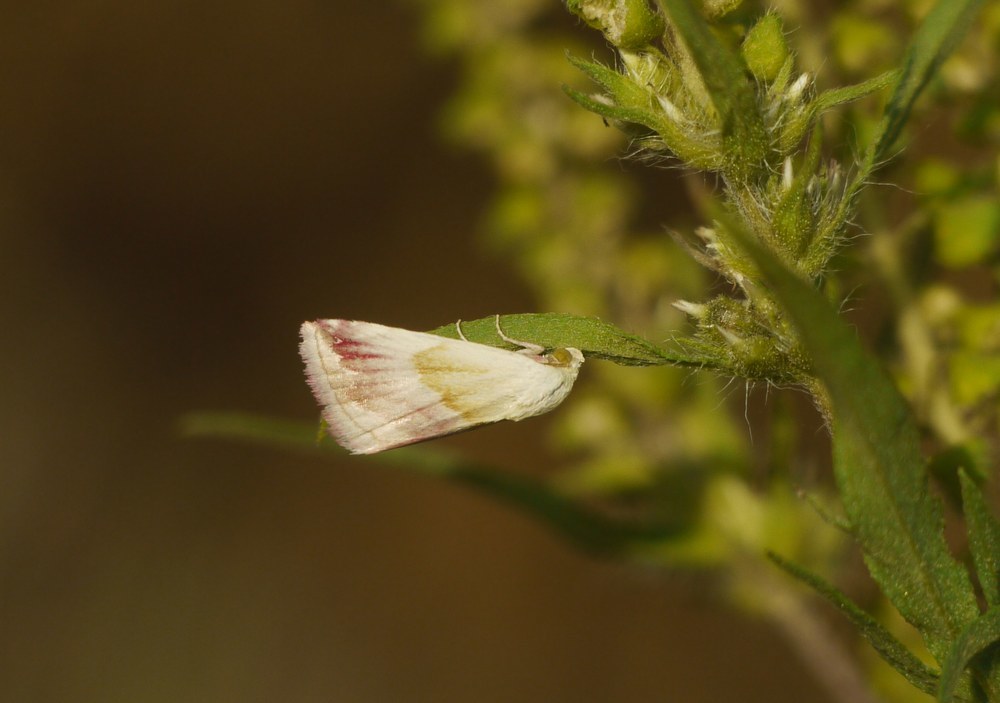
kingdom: Animalia
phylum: Arthropoda
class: Insecta
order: Lepidoptera
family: Noctuidae
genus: Eublemma
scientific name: Eublemma purpurina
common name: Beautiful marbled
